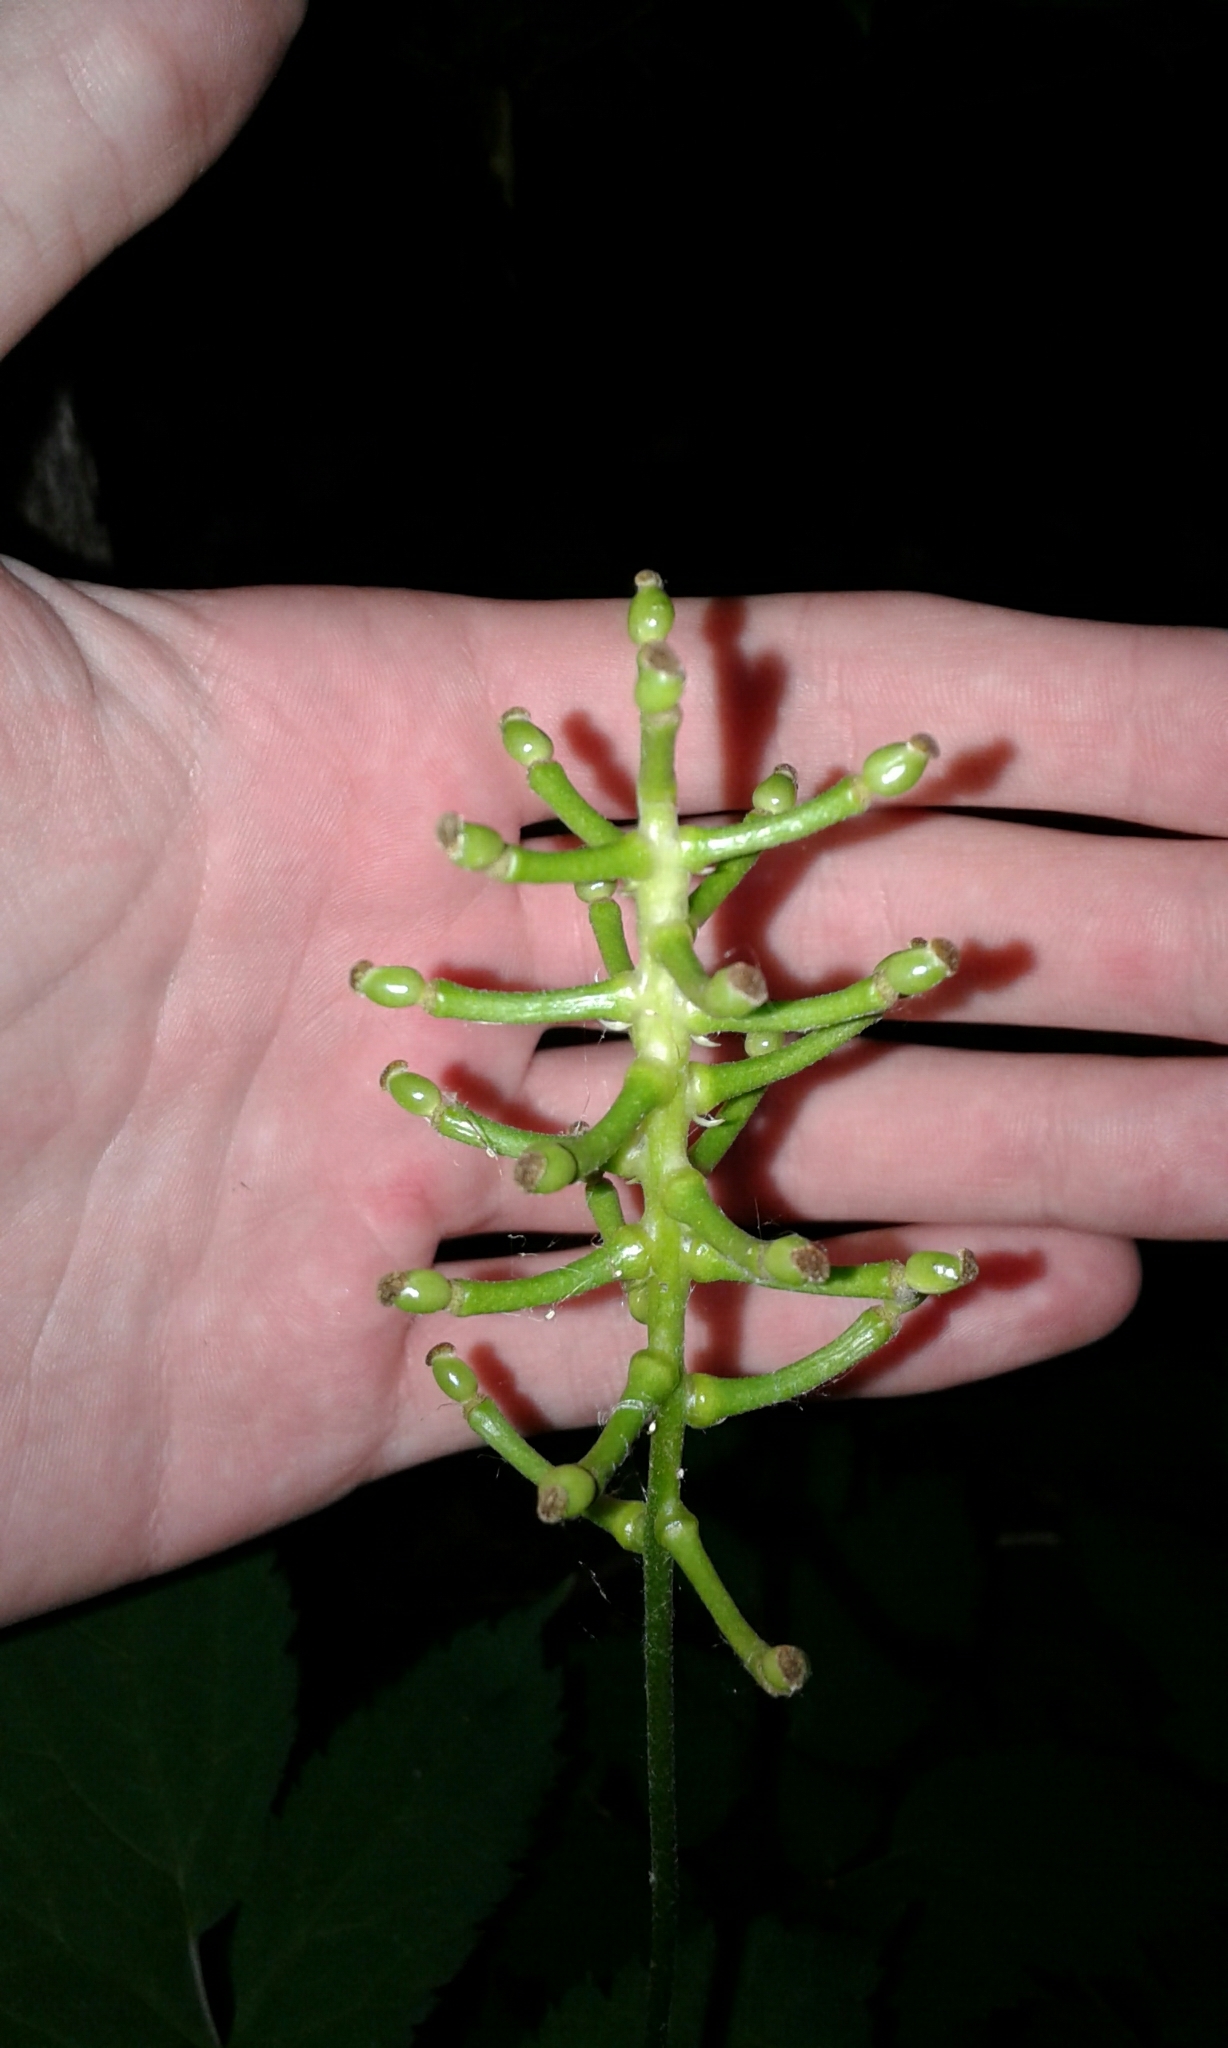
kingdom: Plantae
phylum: Tracheophyta
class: Magnoliopsida
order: Ranunculales
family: Ranunculaceae
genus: Actaea
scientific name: Actaea pachypoda
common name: Doll's-eyes
